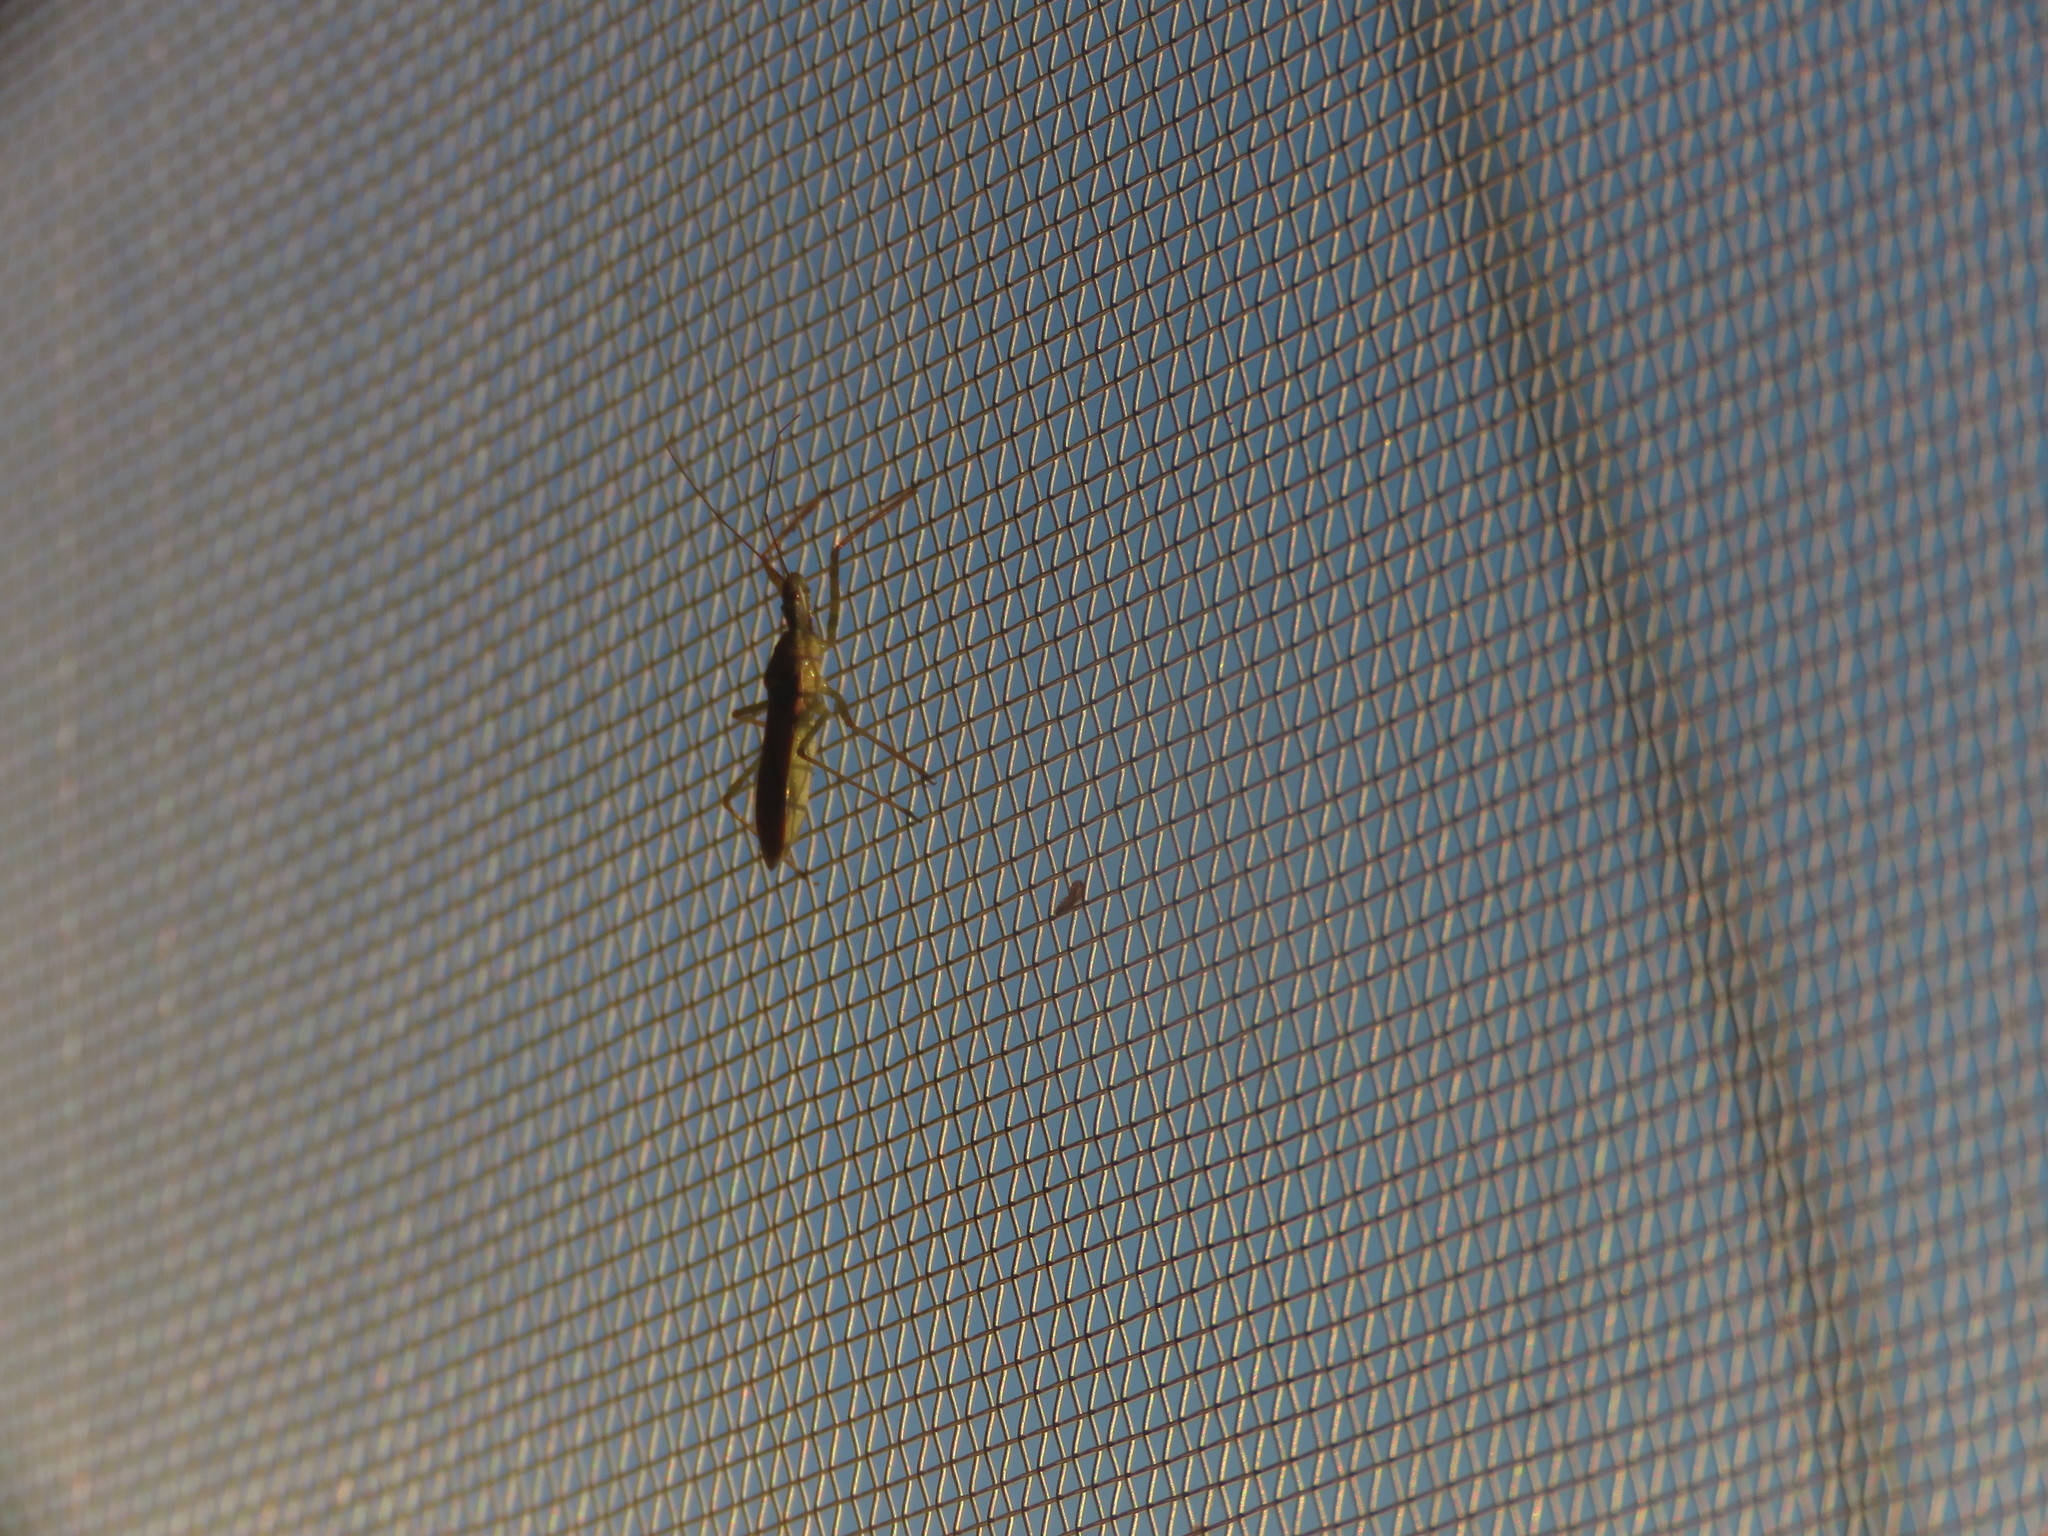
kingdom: Animalia
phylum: Arthropoda
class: Insecta
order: Hemiptera
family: Reduviidae
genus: Zelus
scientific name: Zelus renardii
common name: Assassin bug
